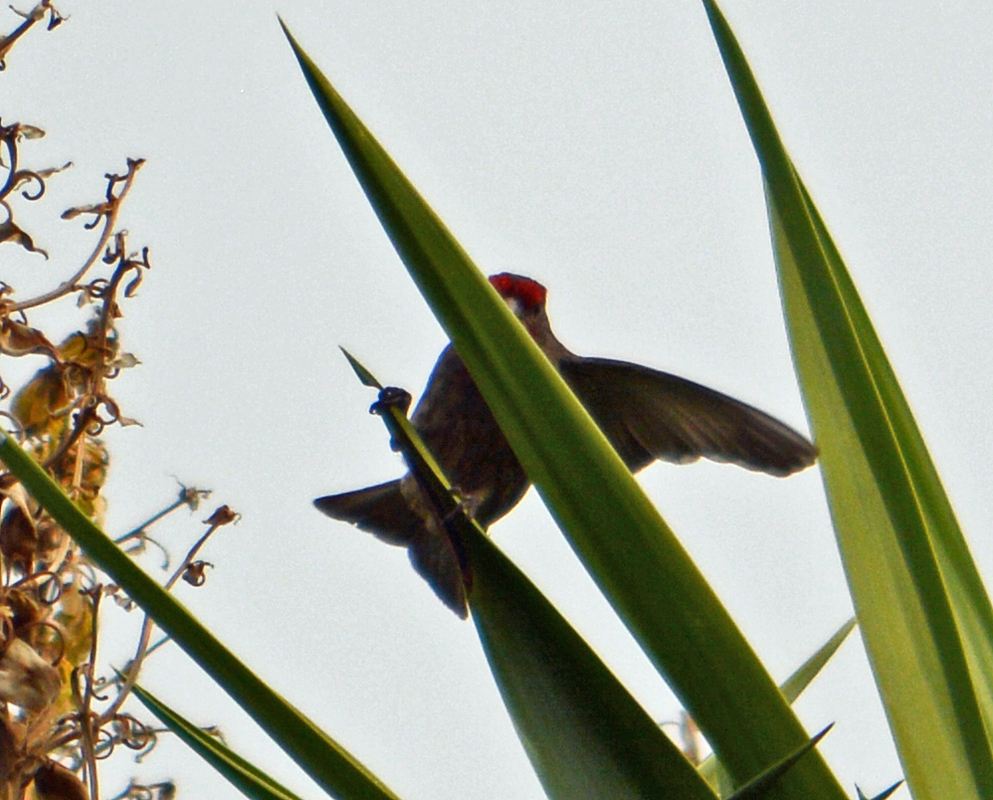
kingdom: Animalia
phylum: Chordata
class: Aves
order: Passeriformes
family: Fringillidae
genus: Haemorhous
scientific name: Haemorhous mexicanus
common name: House finch
